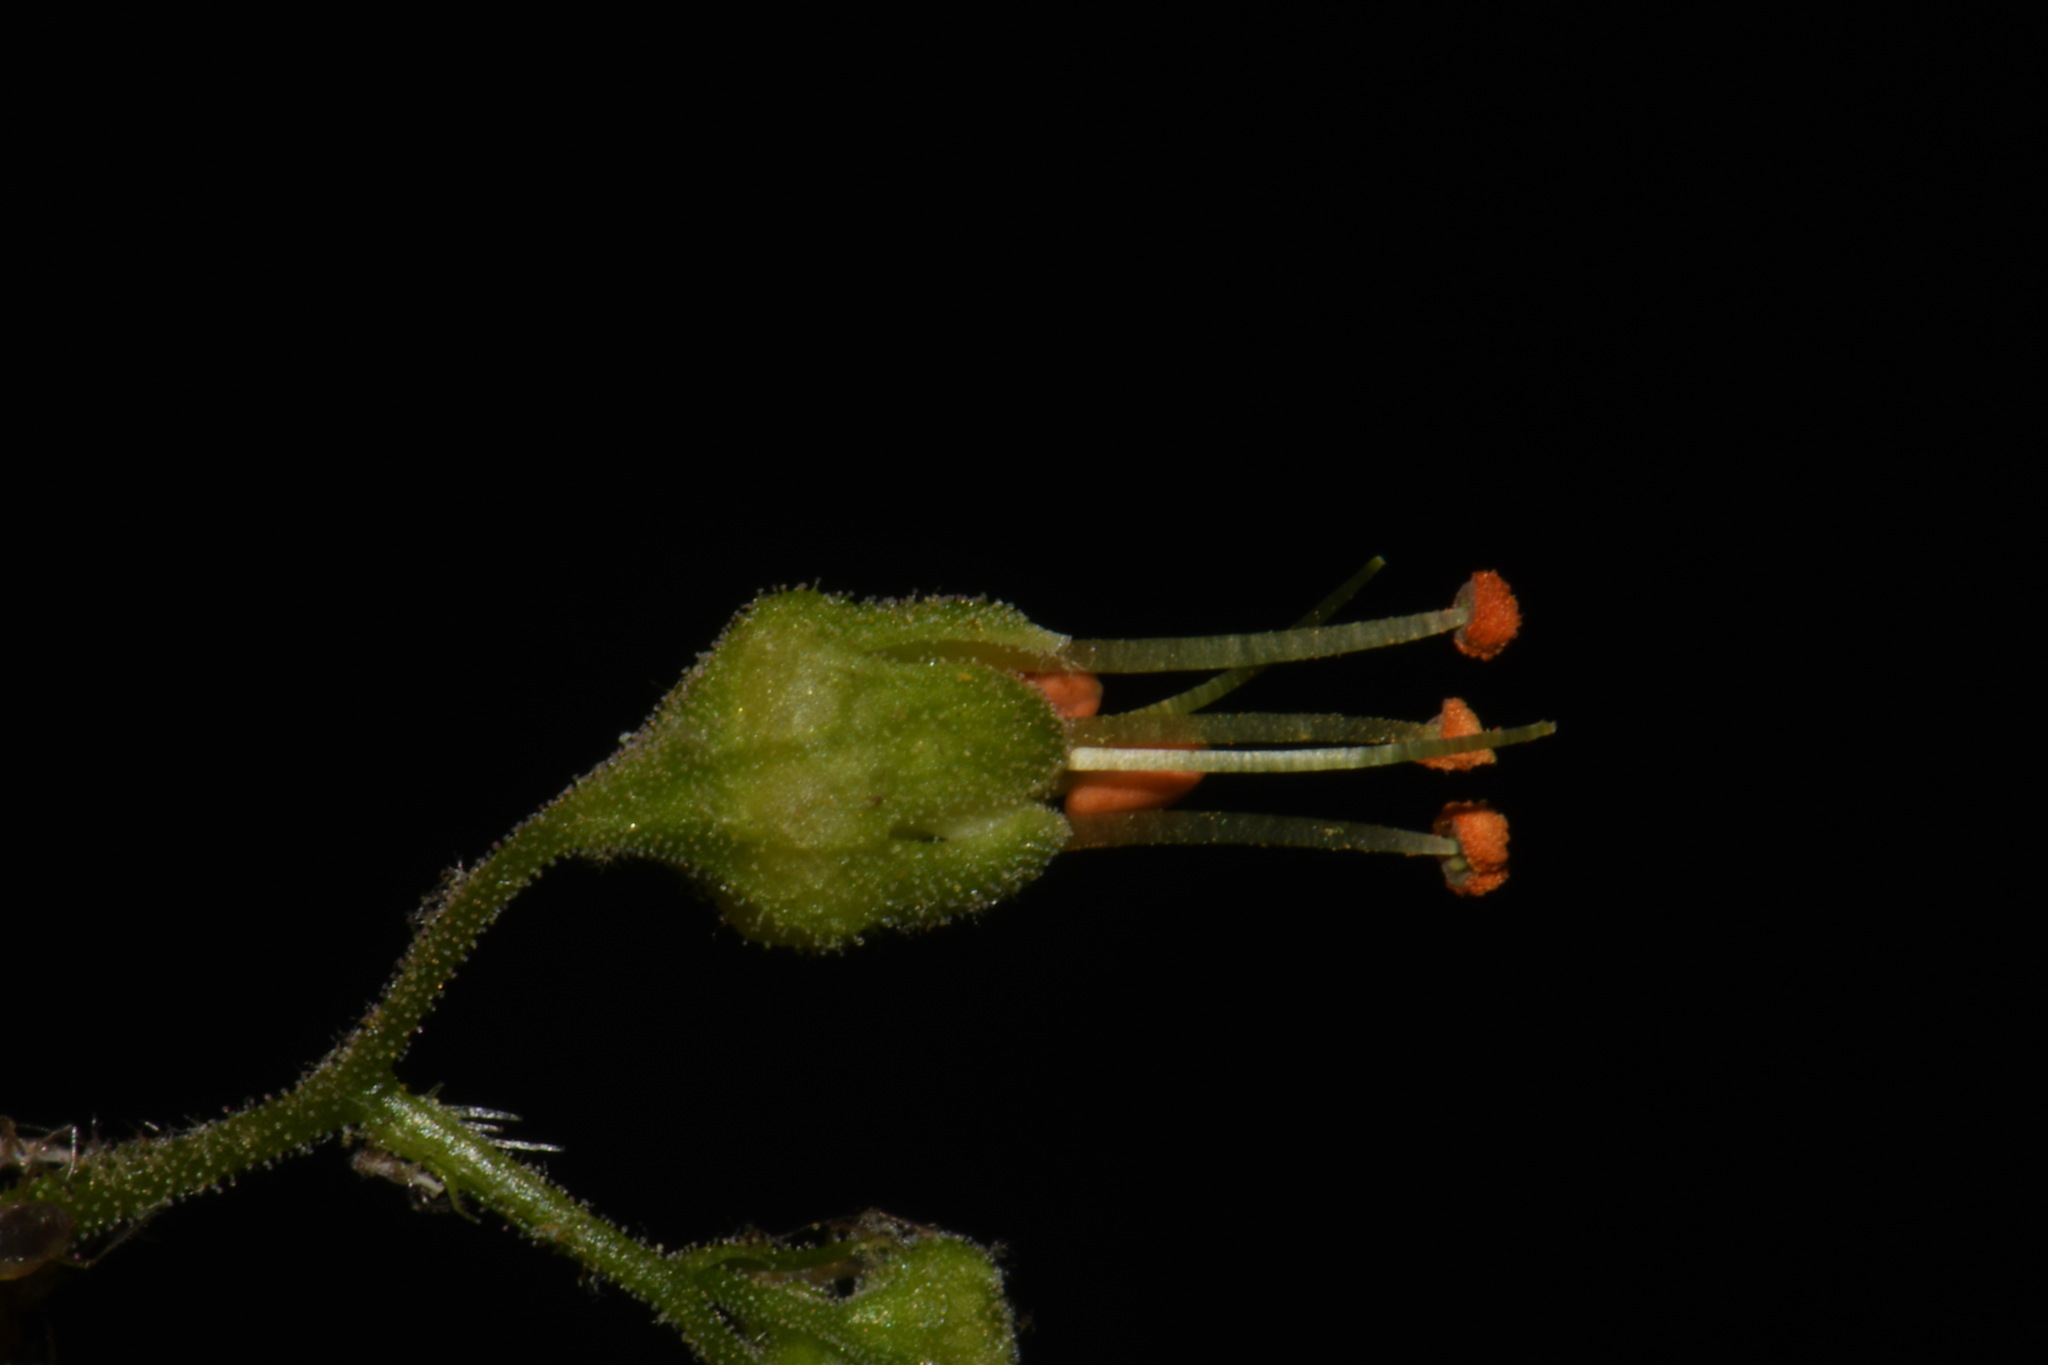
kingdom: Plantae
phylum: Tracheophyta
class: Magnoliopsida
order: Saxifragales
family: Saxifragaceae
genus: Heuchera
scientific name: Heuchera americana
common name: Alumroot
